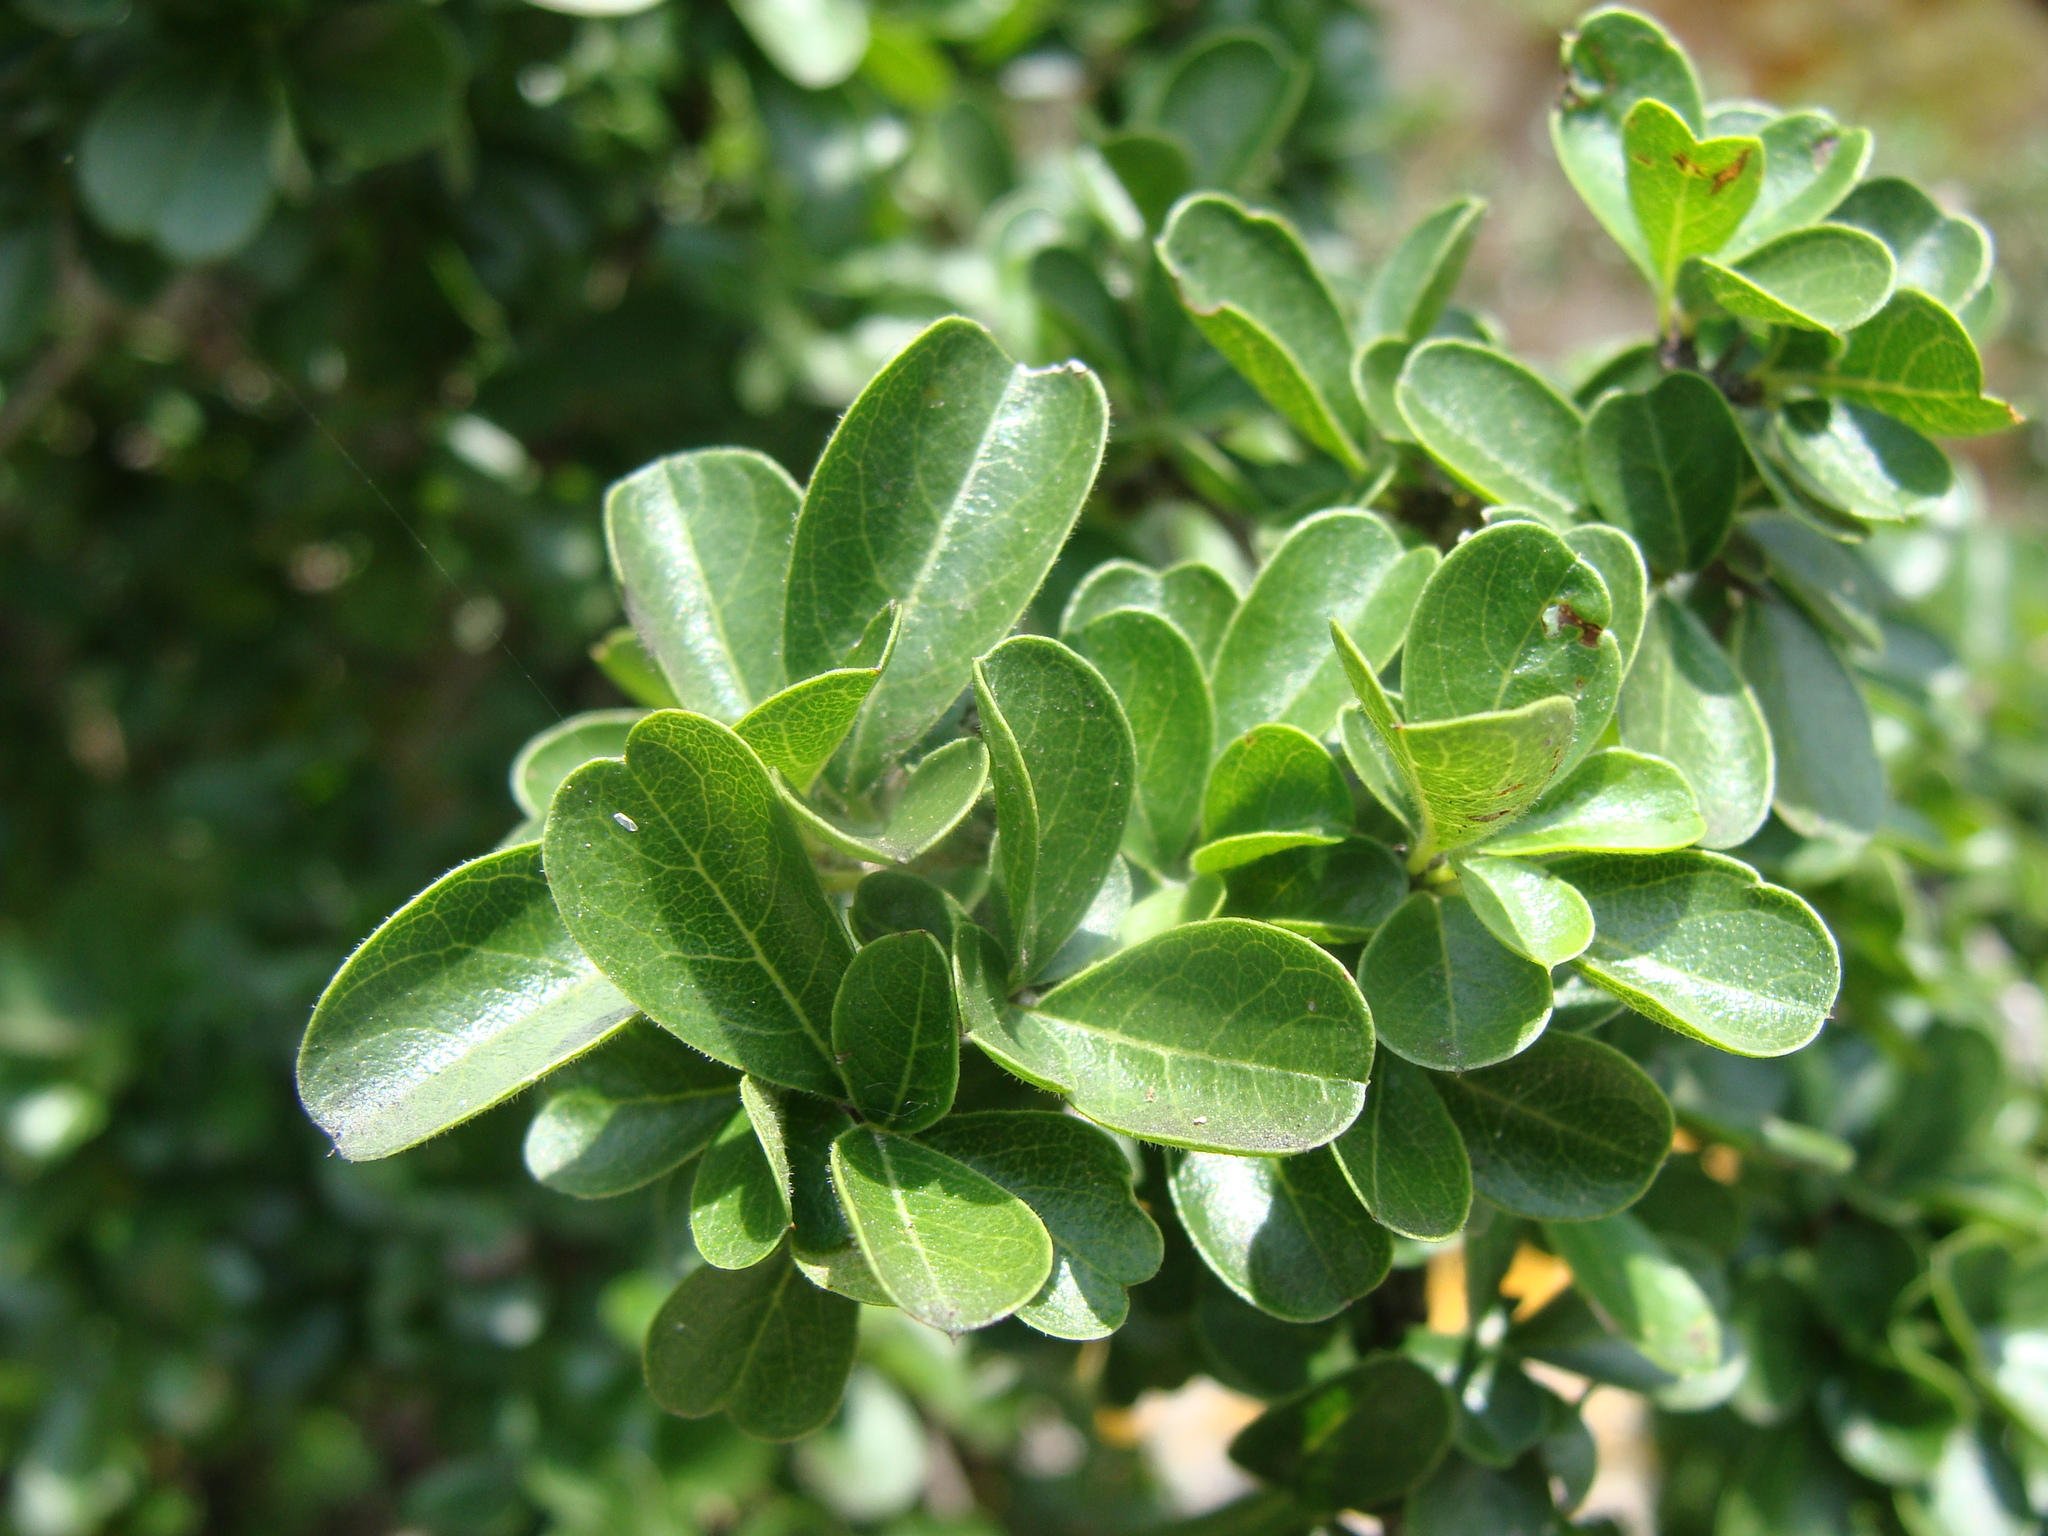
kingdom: Plantae
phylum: Tracheophyta
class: Magnoliopsida
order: Rosales
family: Rhamnaceae
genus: Condalia
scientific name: Condalia mexicana
